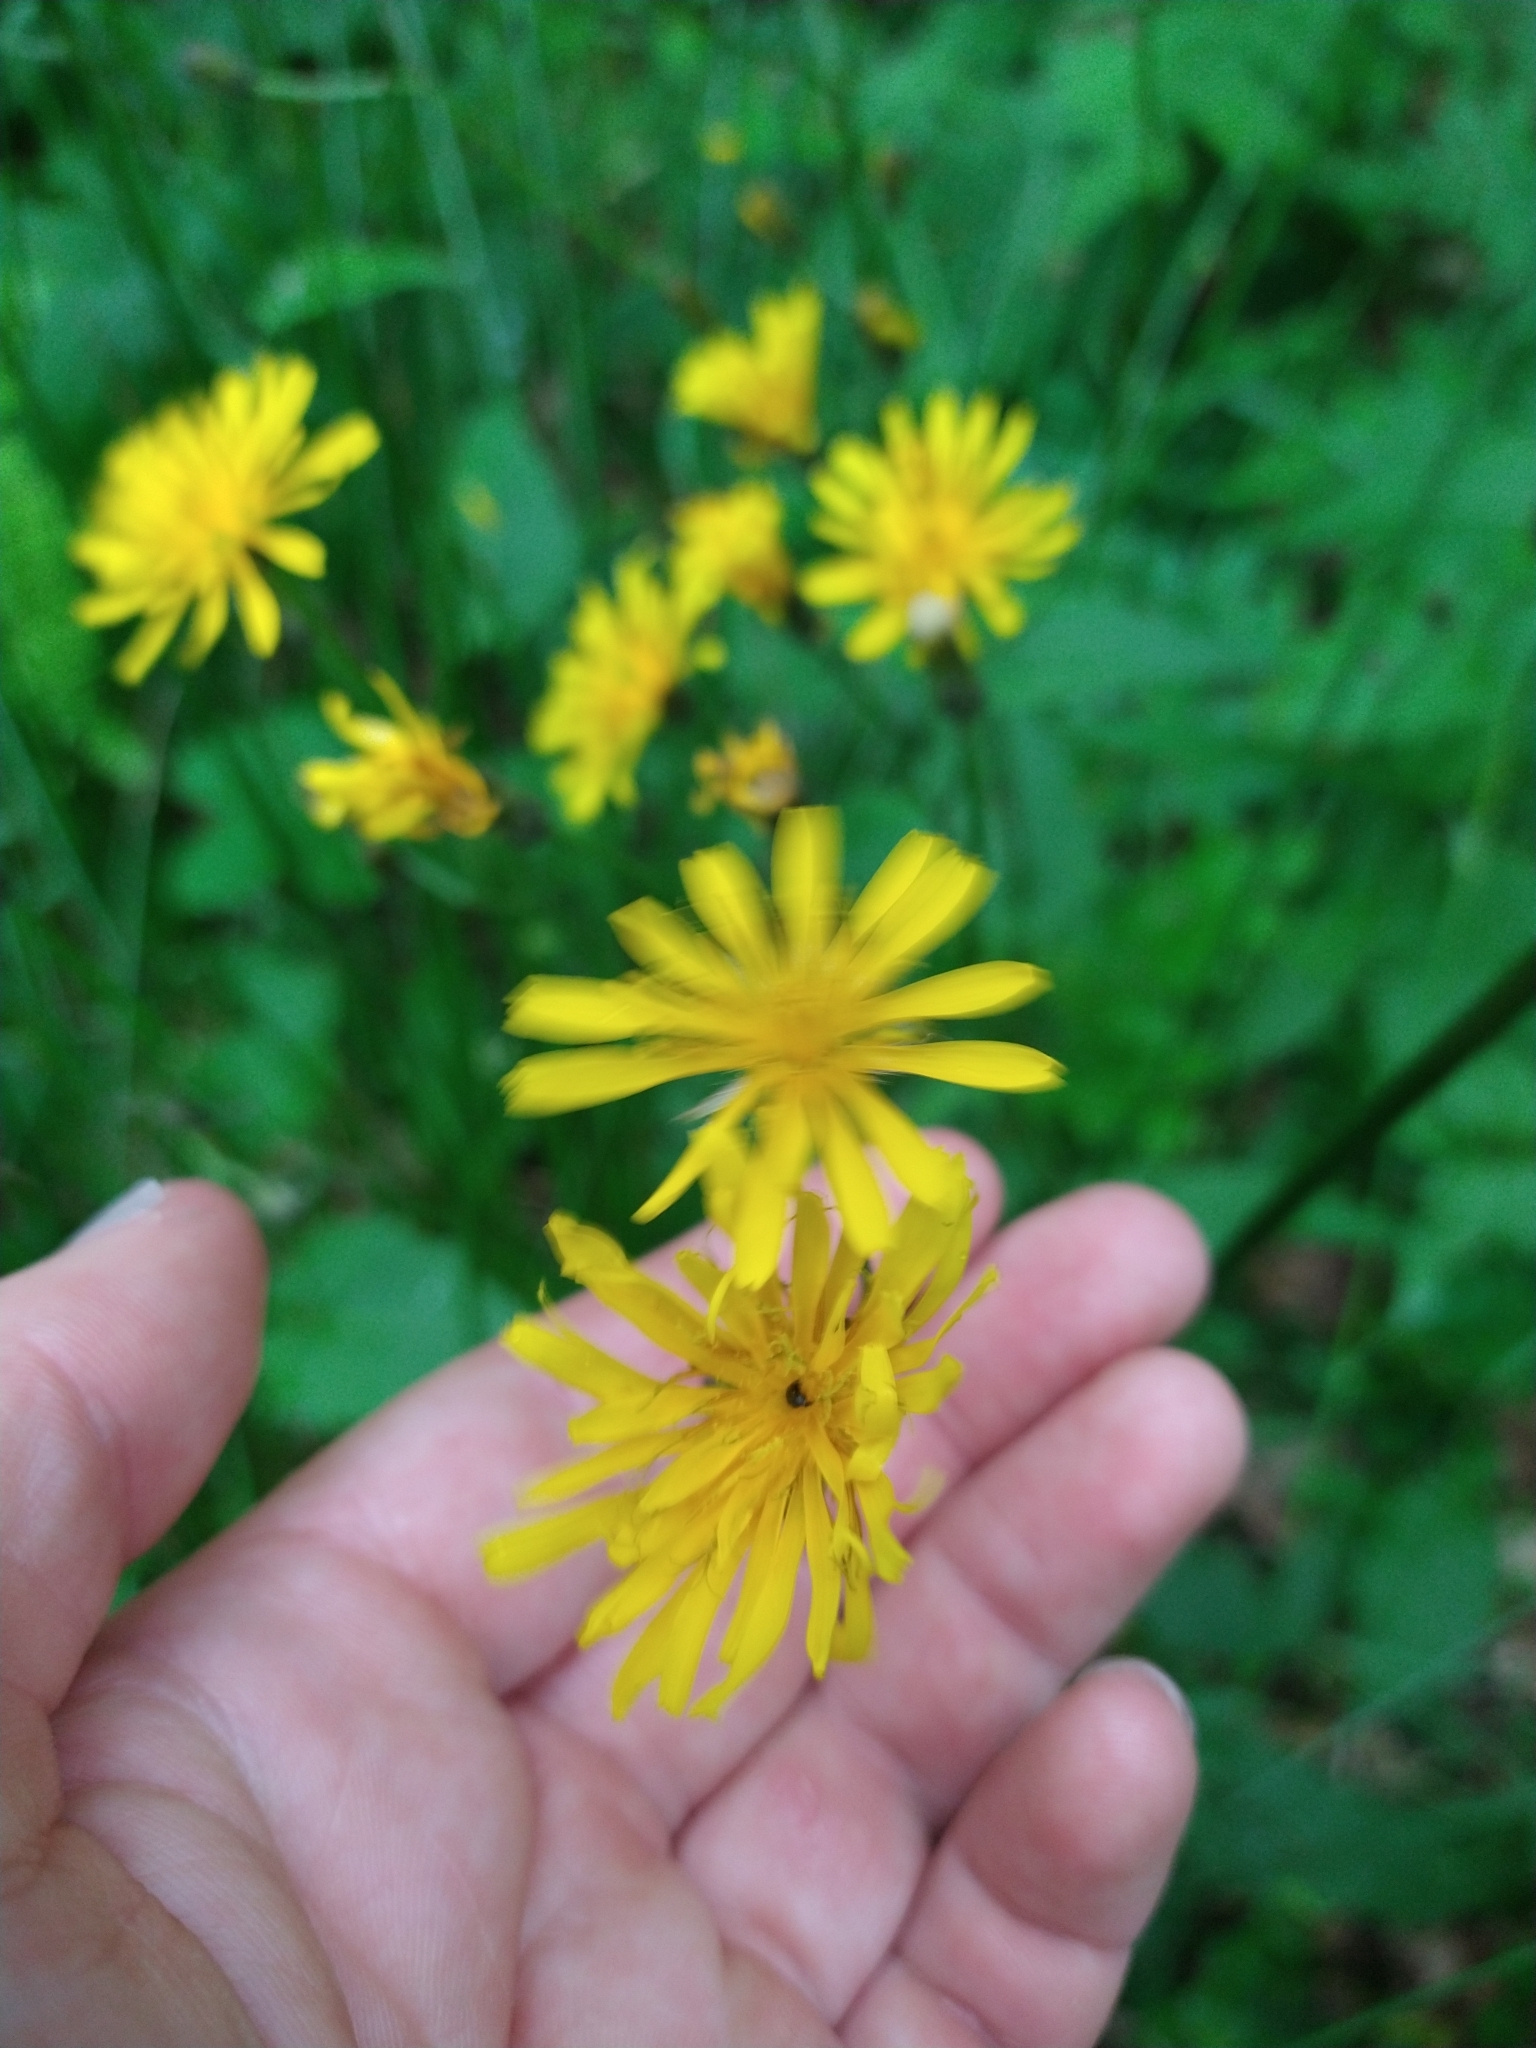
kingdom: Plantae
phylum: Tracheophyta
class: Magnoliopsida
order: Asterales
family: Asteraceae
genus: Crepis
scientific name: Crepis paludosa
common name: Marsh hawk's-beard
